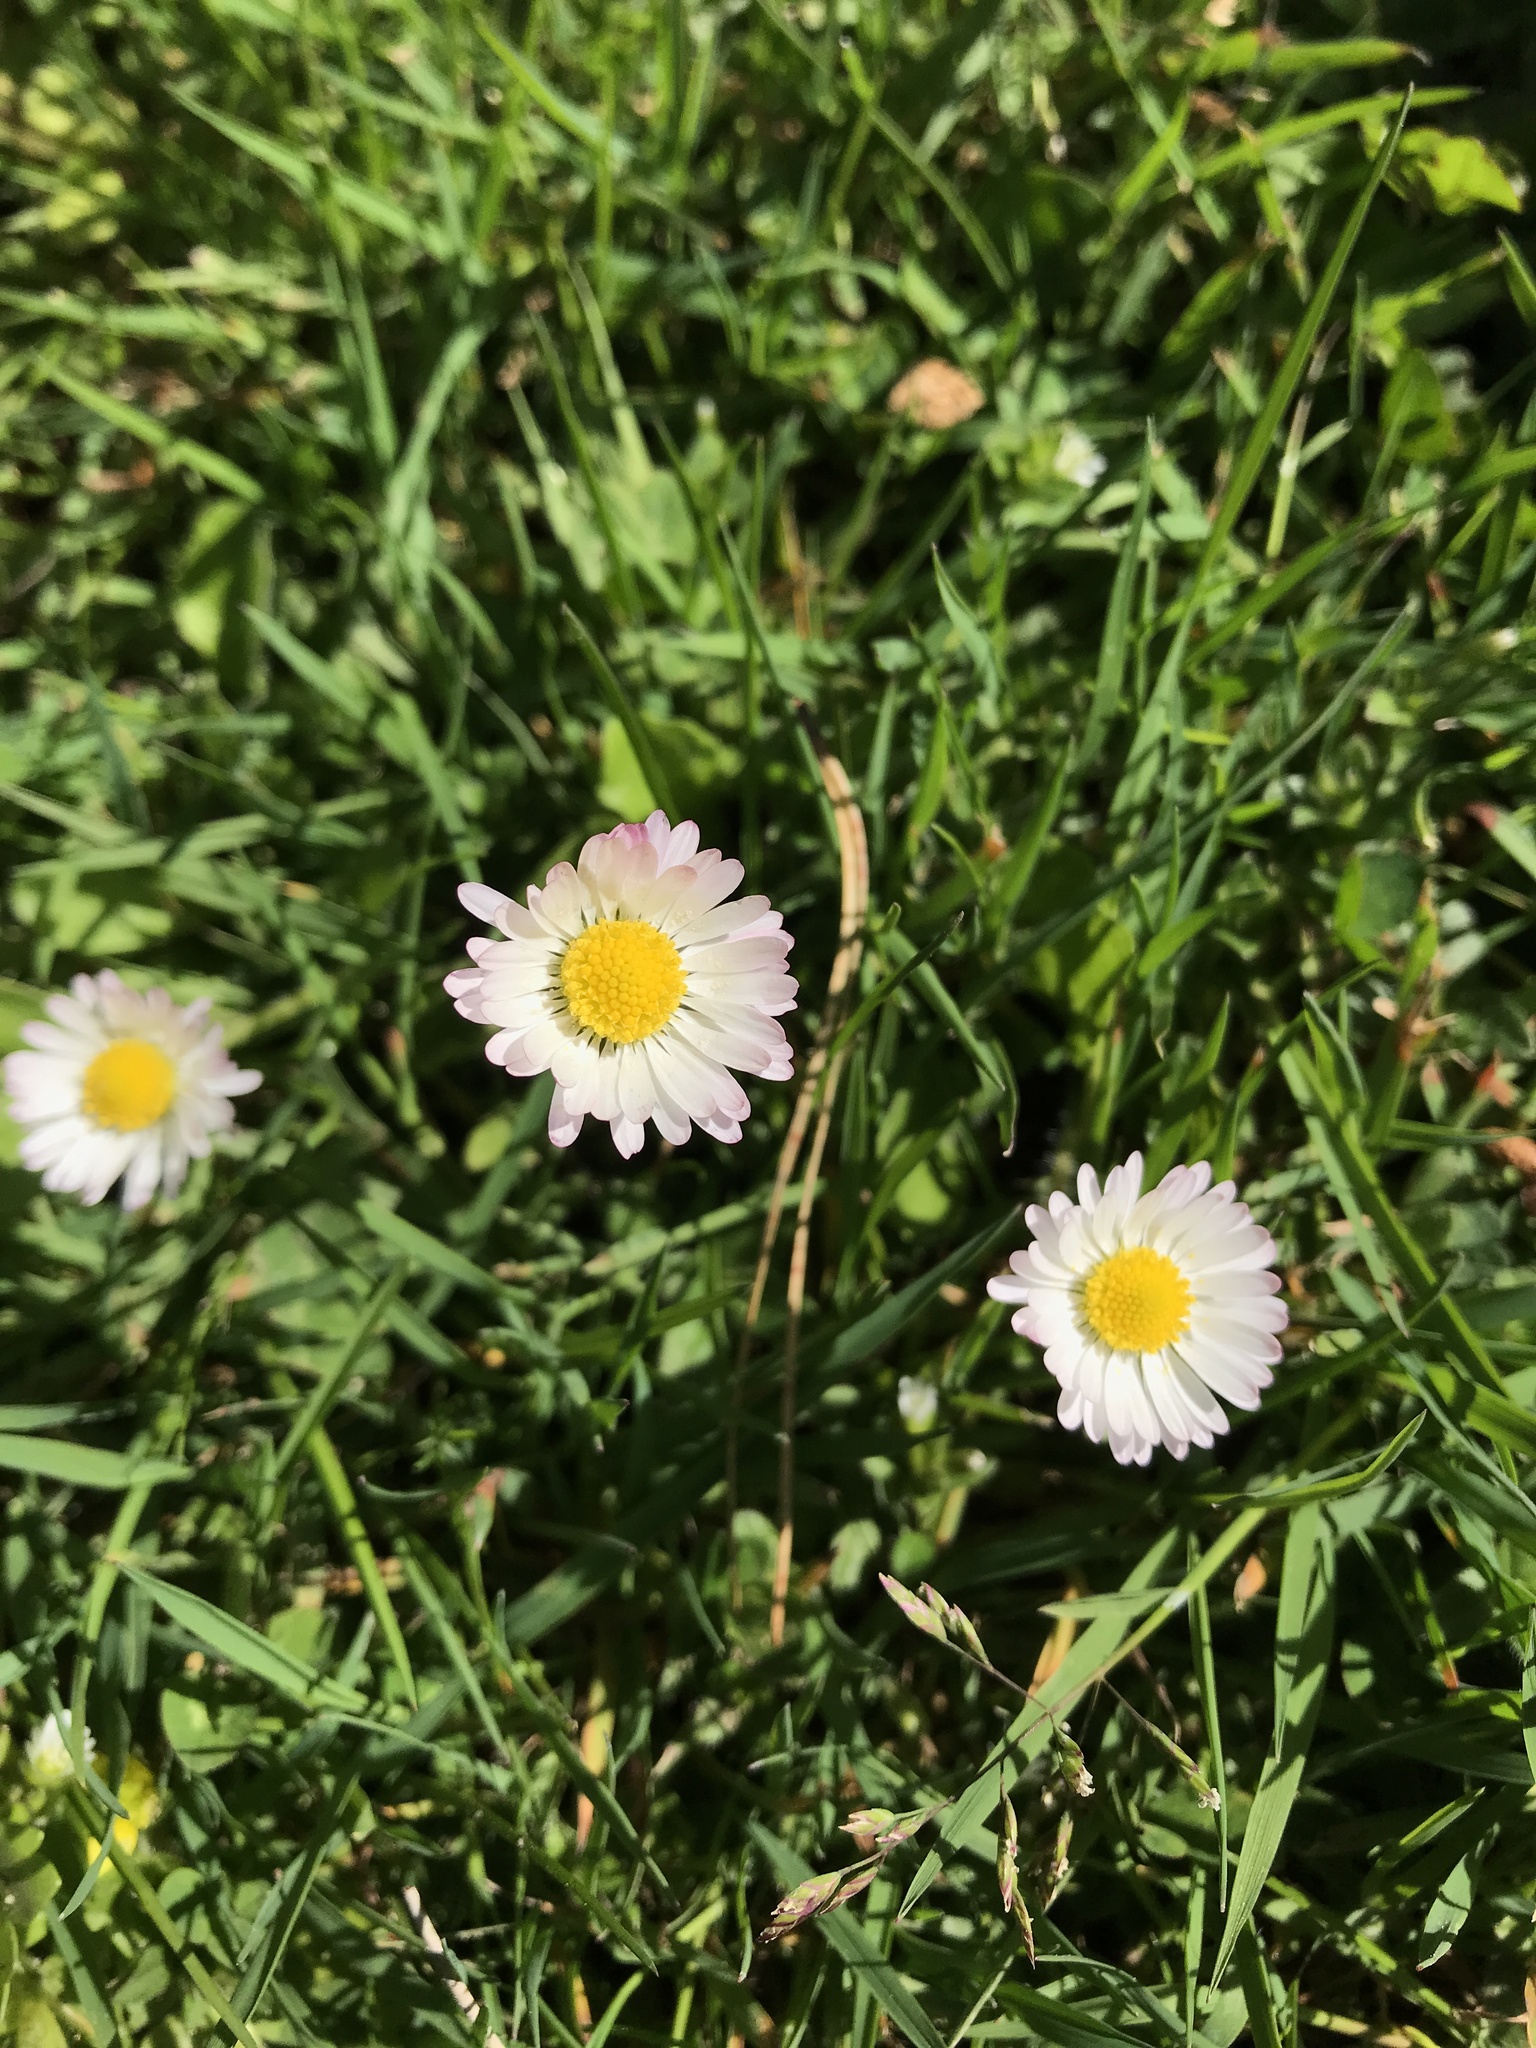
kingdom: Plantae
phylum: Tracheophyta
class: Magnoliopsida
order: Asterales
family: Asteraceae
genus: Bellis
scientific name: Bellis perennis
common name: Lawndaisy
